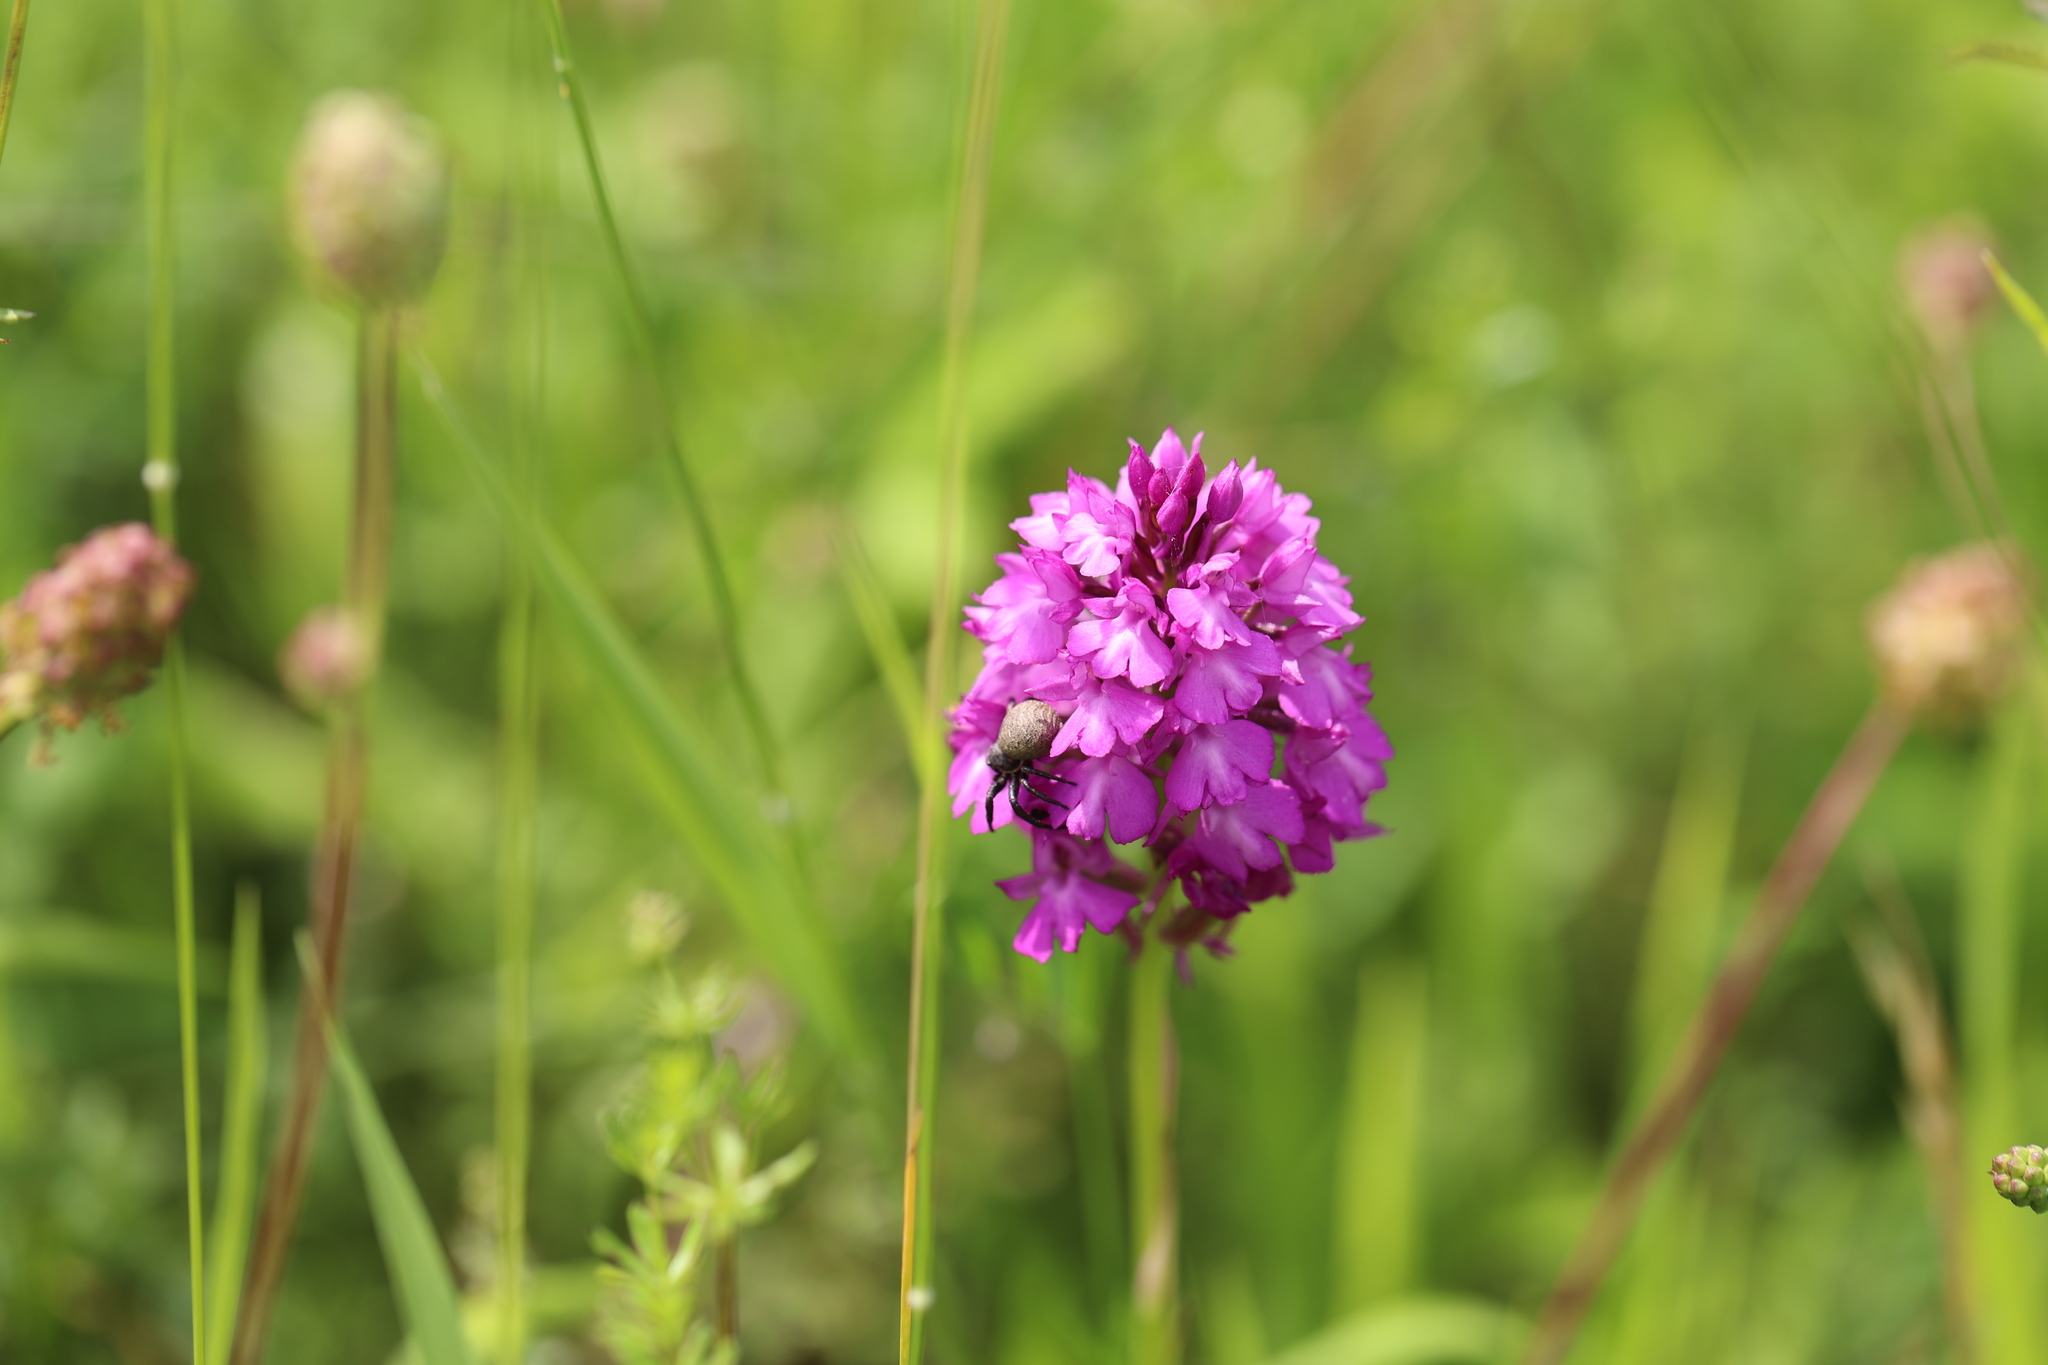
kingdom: Plantae
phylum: Tracheophyta
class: Liliopsida
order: Asparagales
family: Orchidaceae
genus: Anacamptis
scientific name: Anacamptis pyramidalis
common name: Pyramidal orchid
